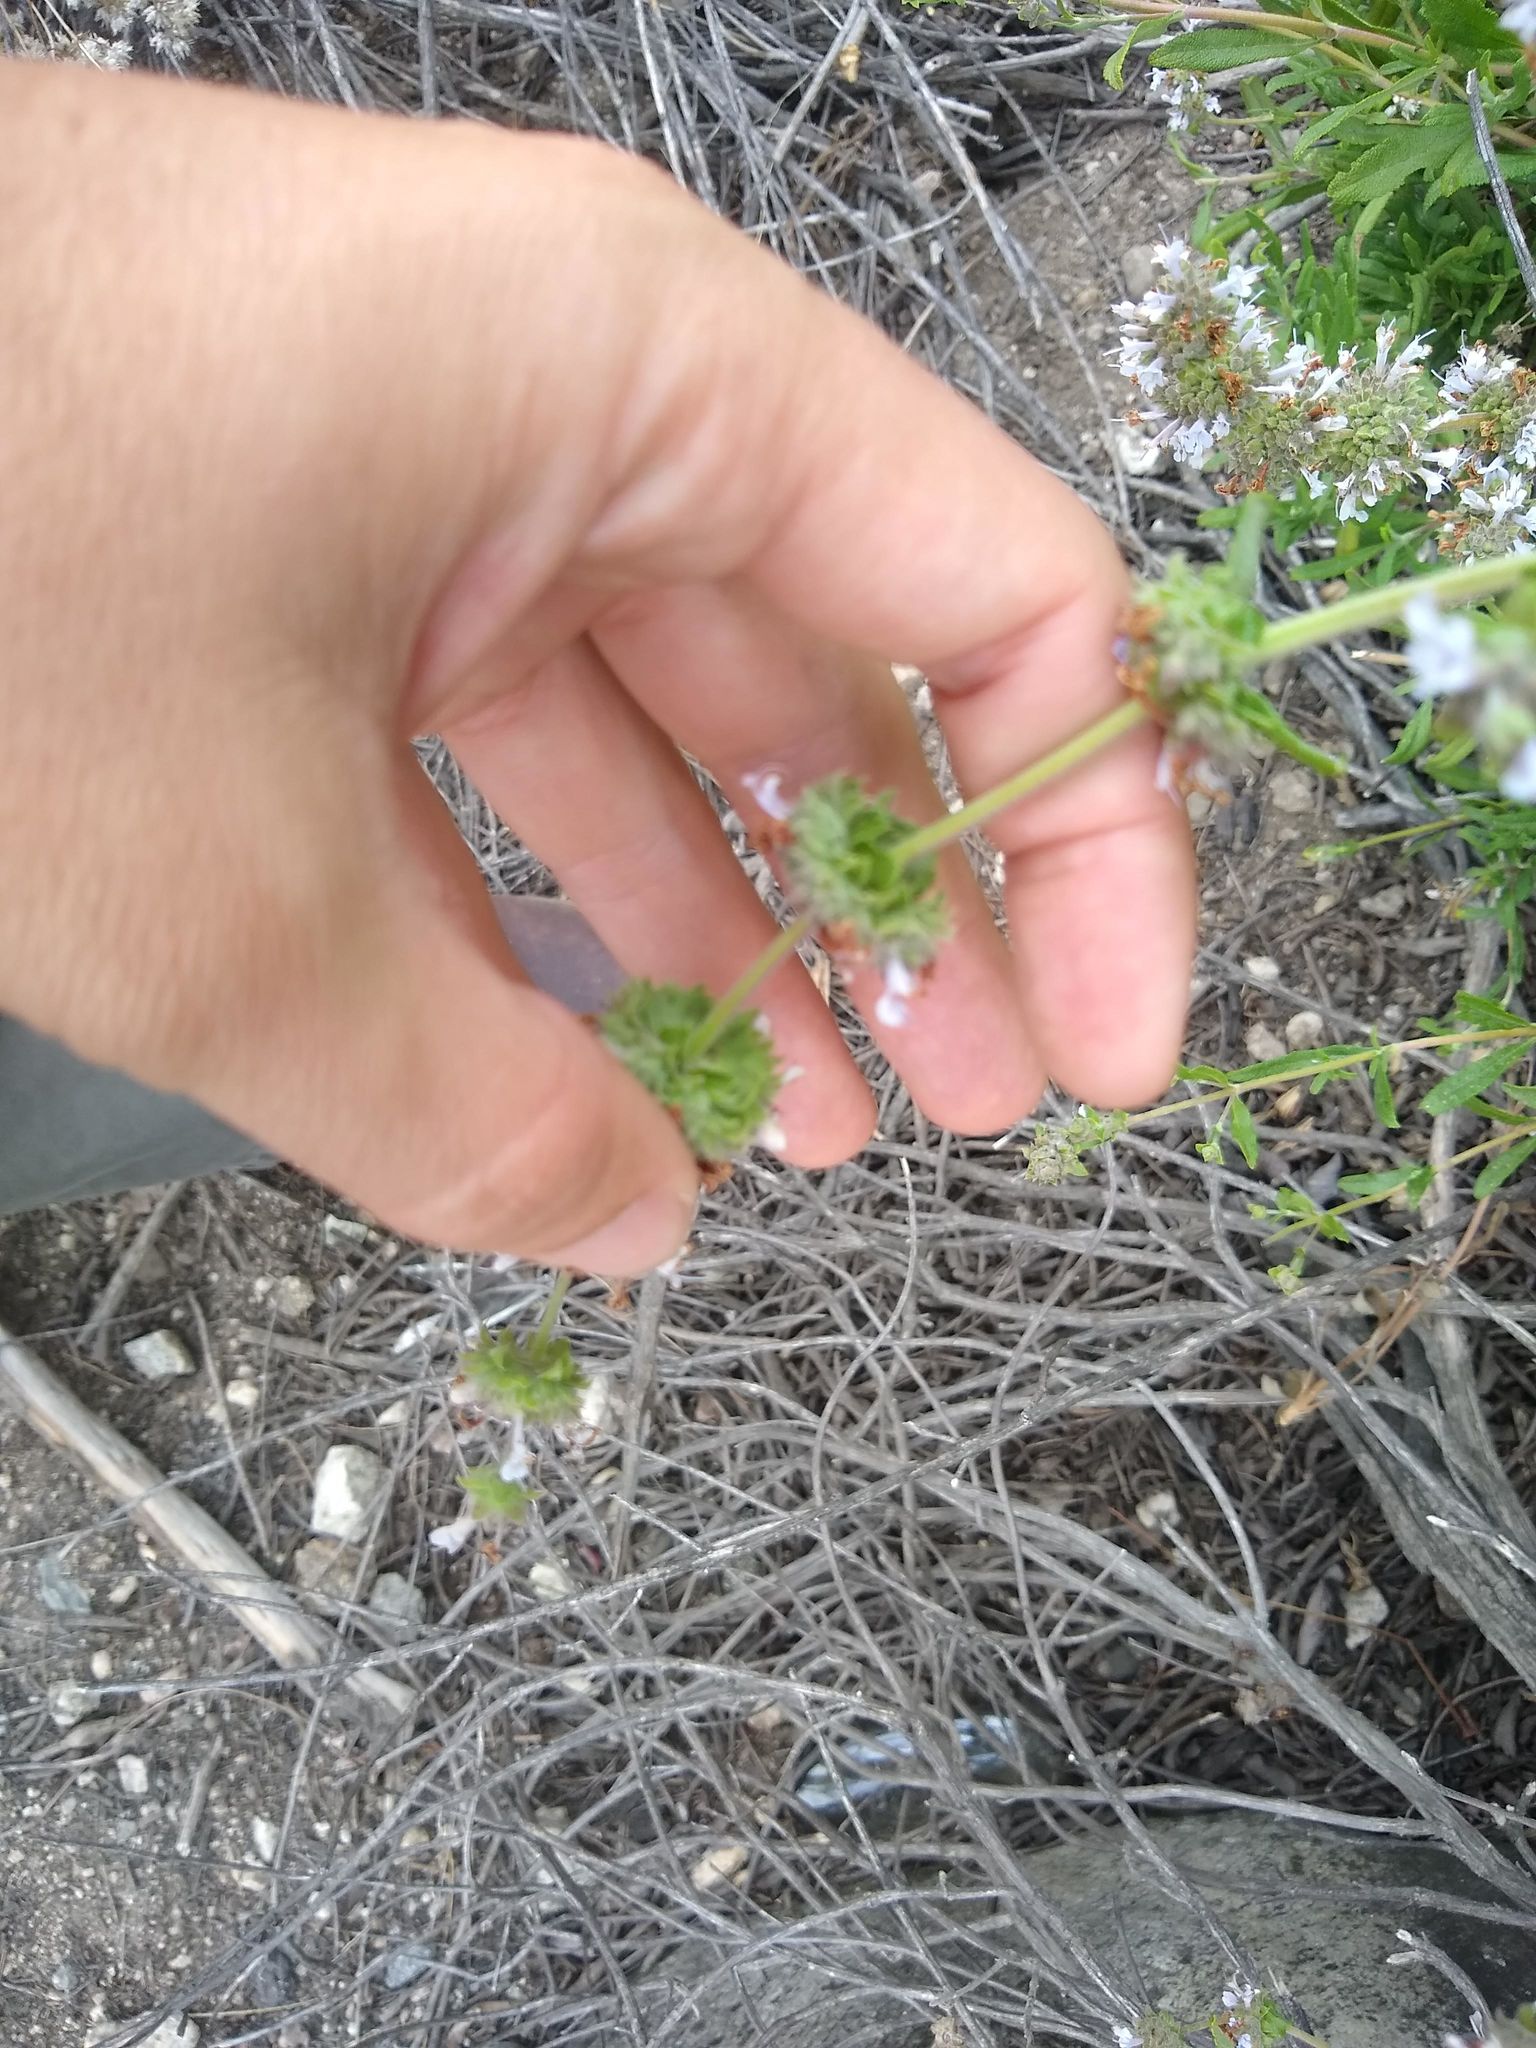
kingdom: Plantae
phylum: Tracheophyta
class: Magnoliopsida
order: Lamiales
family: Lamiaceae
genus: Salvia
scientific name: Salvia mellifera
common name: Black sage
